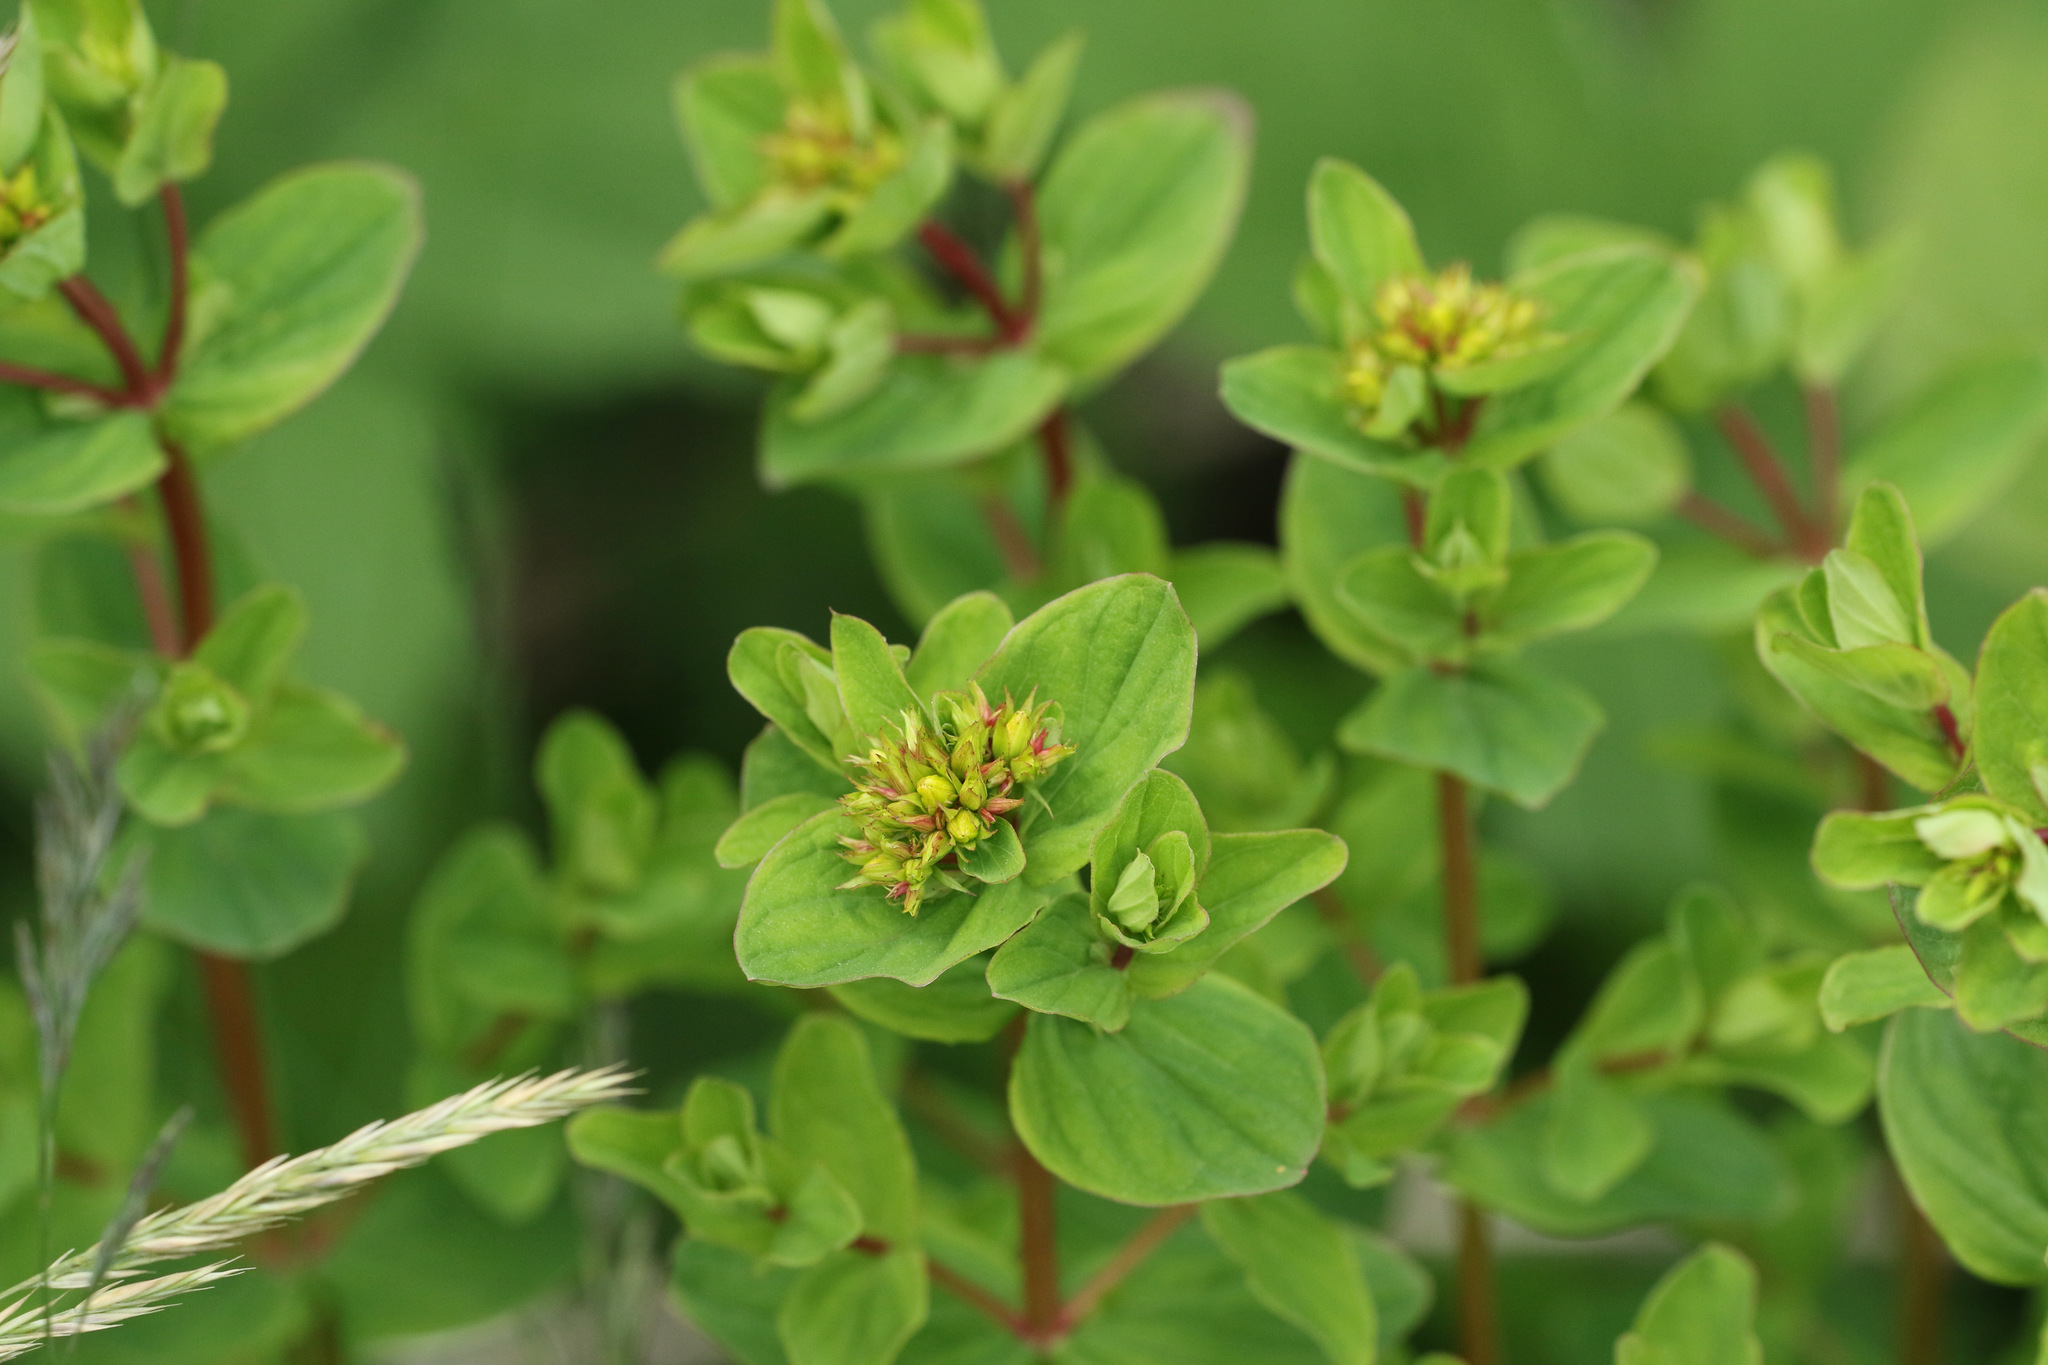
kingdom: Plantae
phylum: Tracheophyta
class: Magnoliopsida
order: Malpighiales
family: Hypericaceae
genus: Hypericum
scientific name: Hypericum tetrapterum
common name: Square-stalked st. john's-wort
